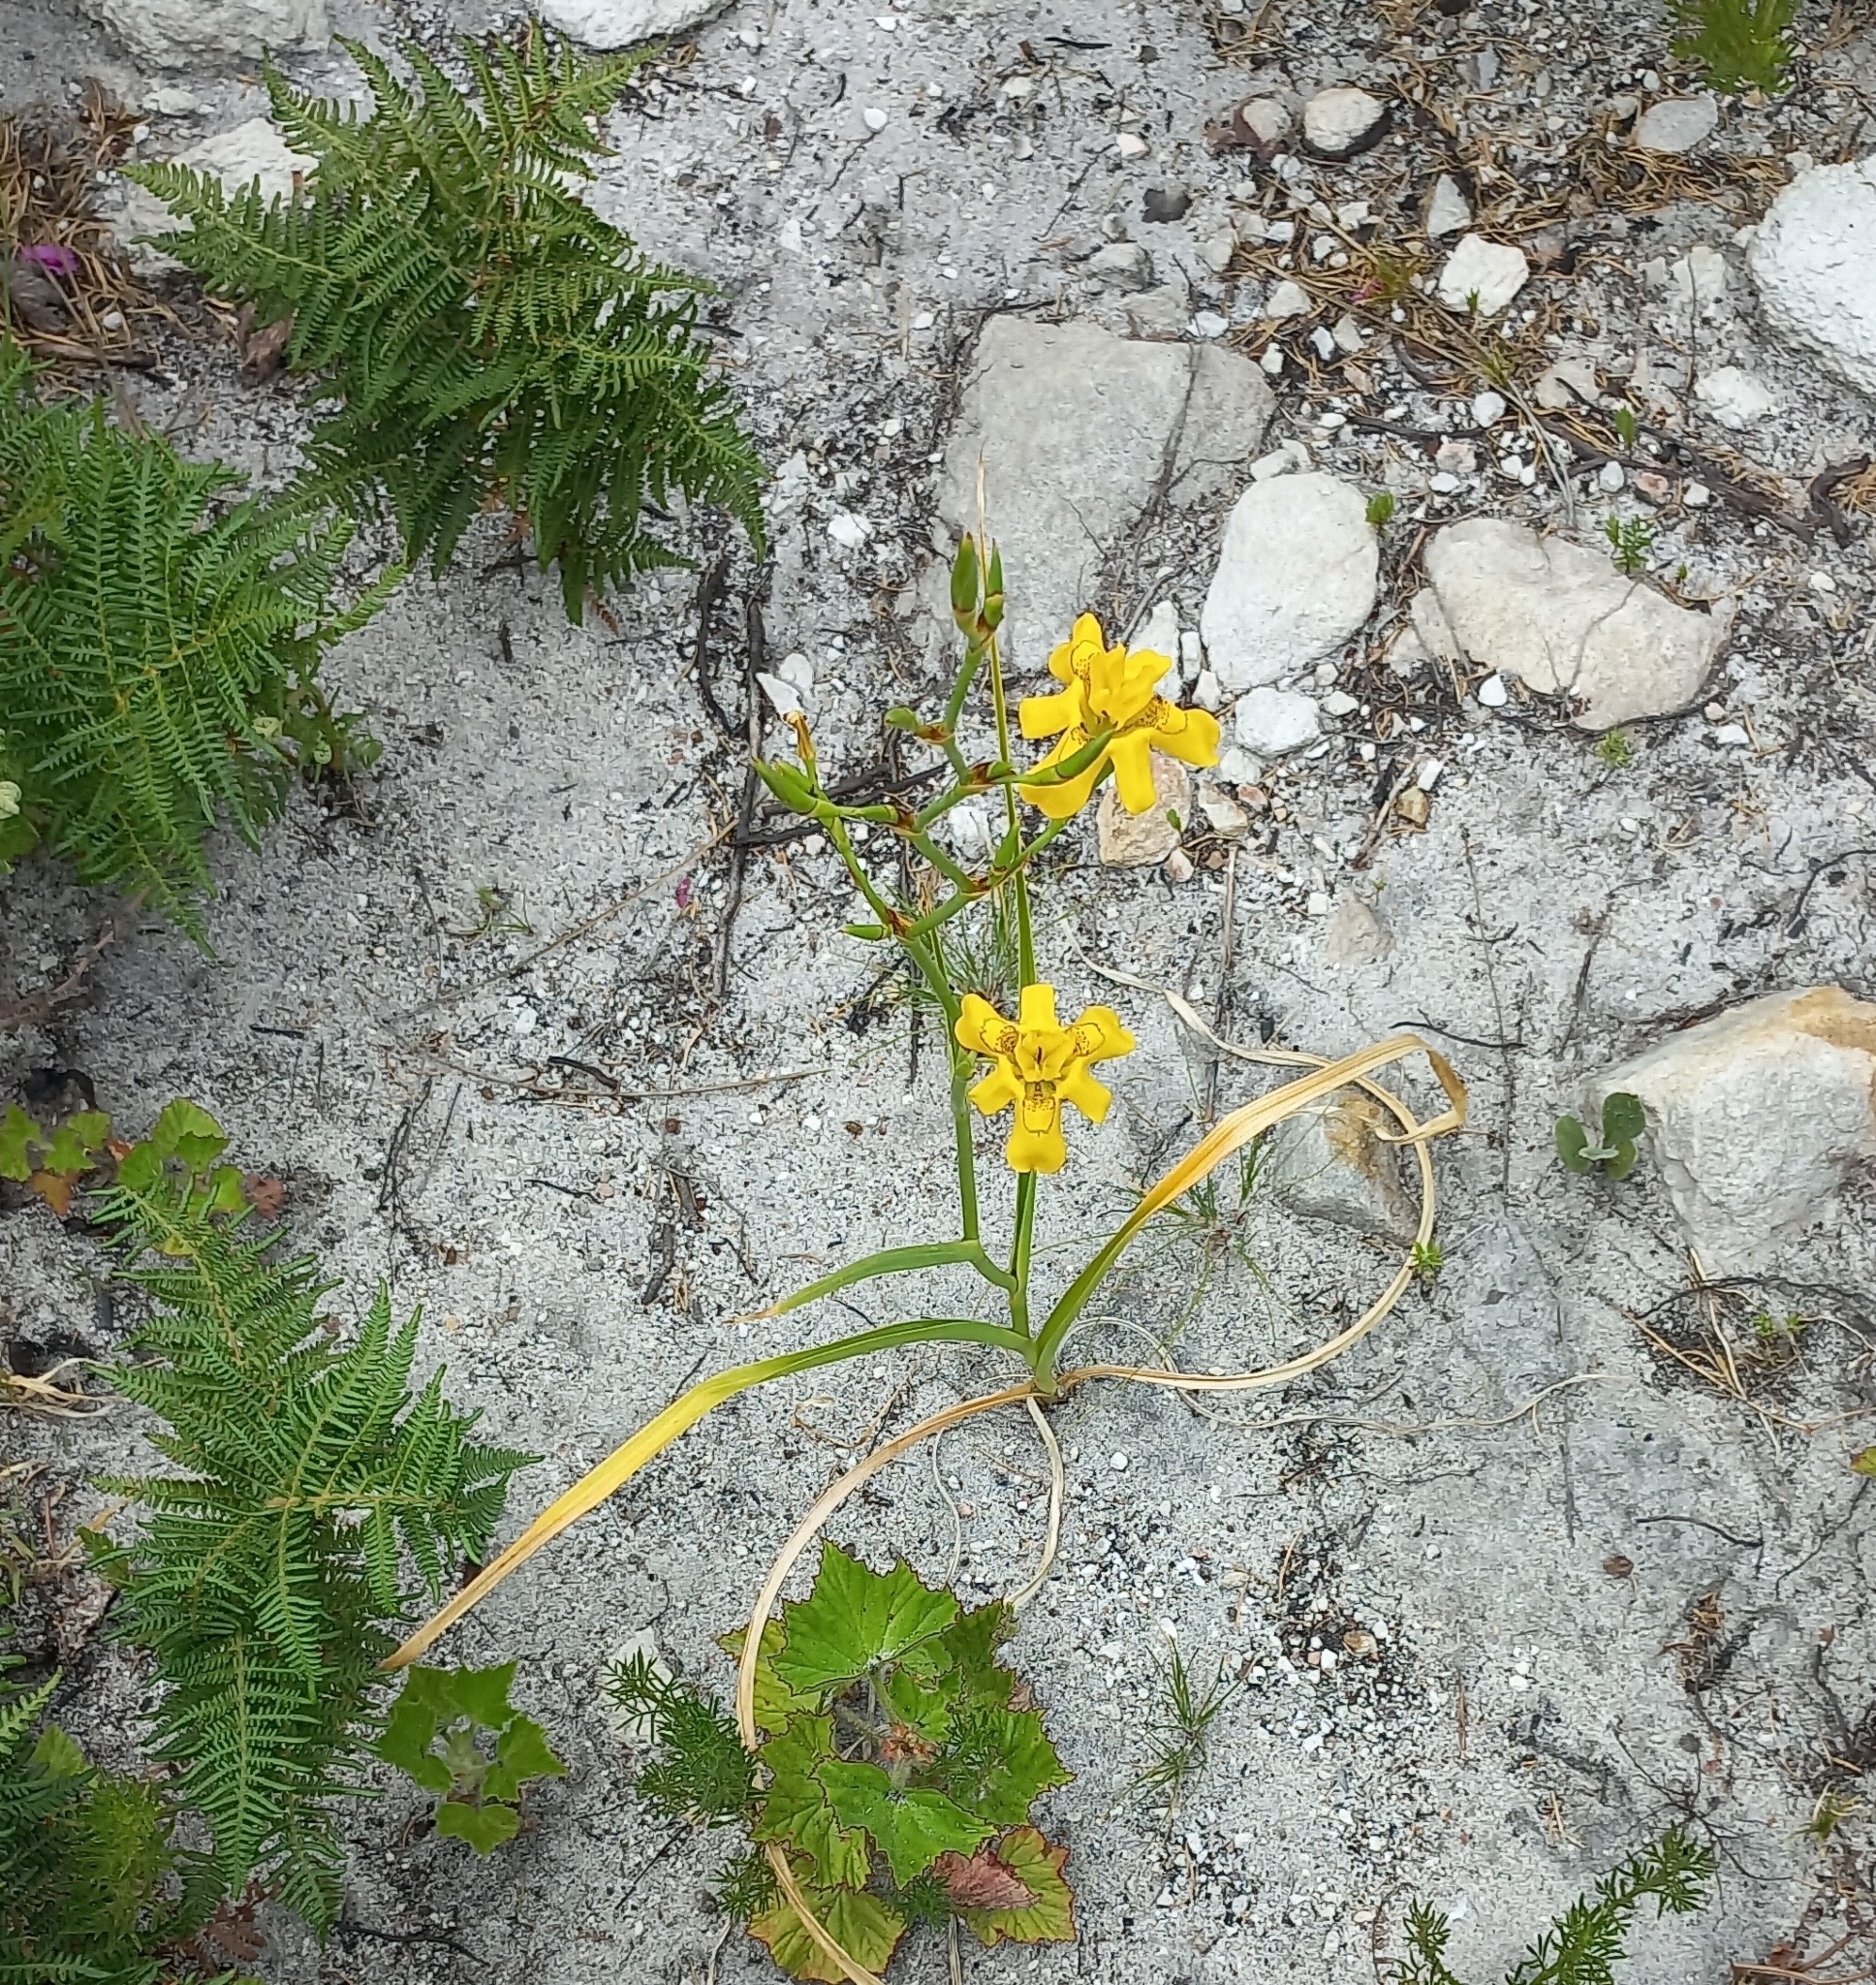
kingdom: Plantae
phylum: Tracheophyta
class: Liliopsida
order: Asparagales
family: Iridaceae
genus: Moraea
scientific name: Moraea ramosissima
